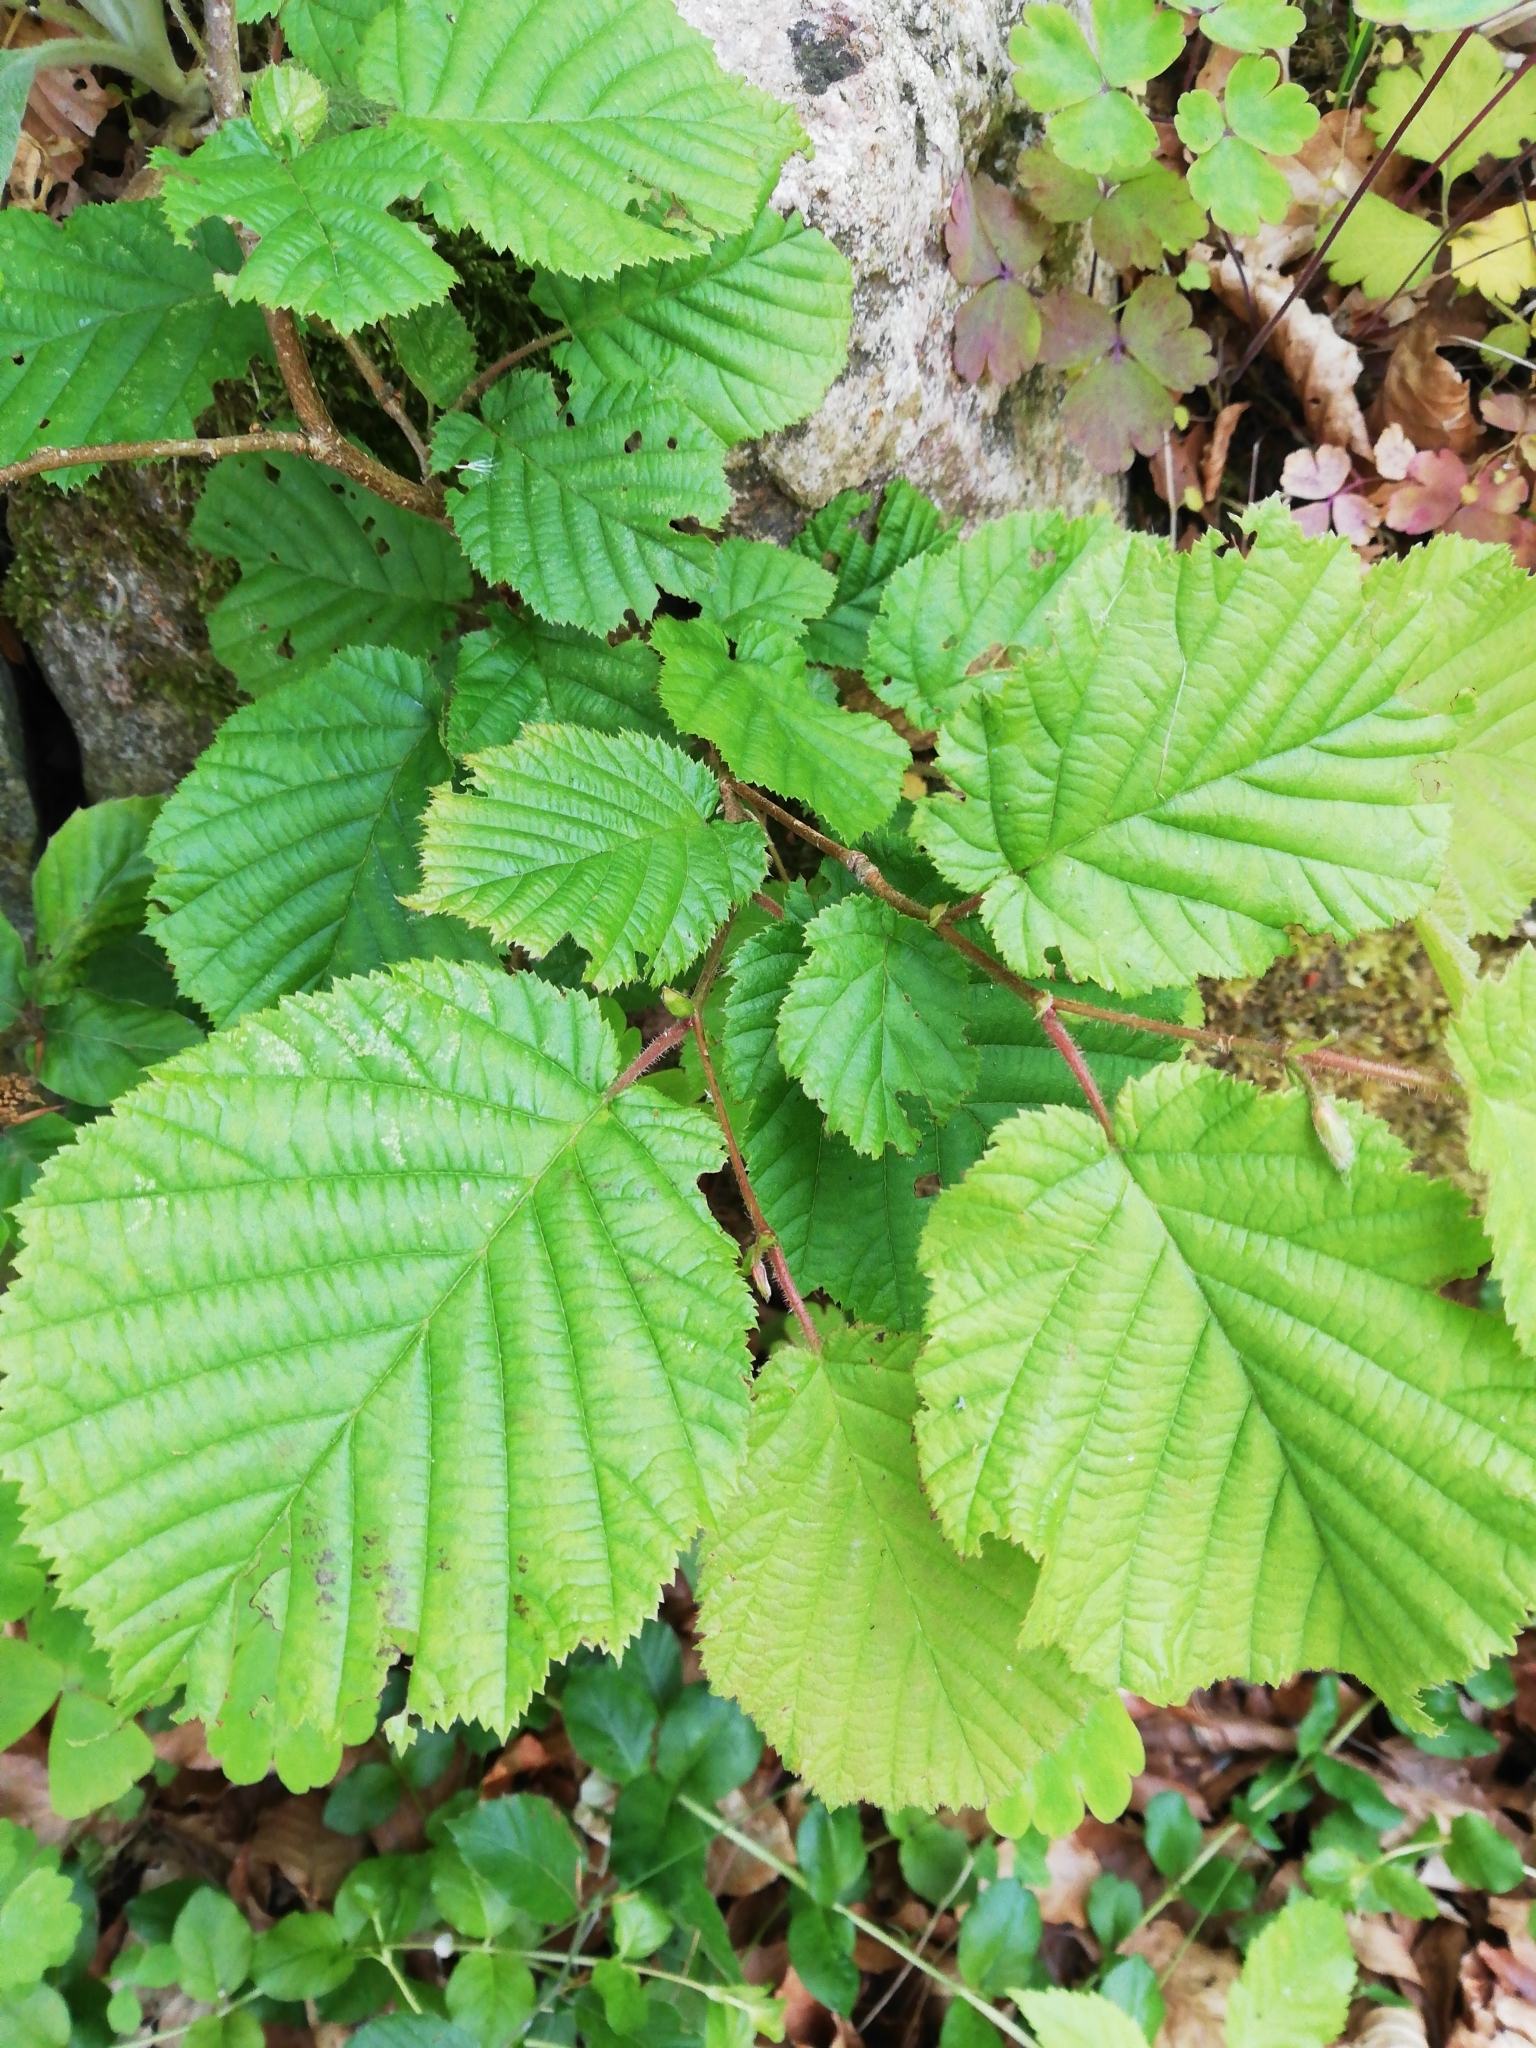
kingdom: Plantae
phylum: Tracheophyta
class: Magnoliopsida
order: Fagales
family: Betulaceae
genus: Corylus
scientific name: Corylus avellana
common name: European hazel
